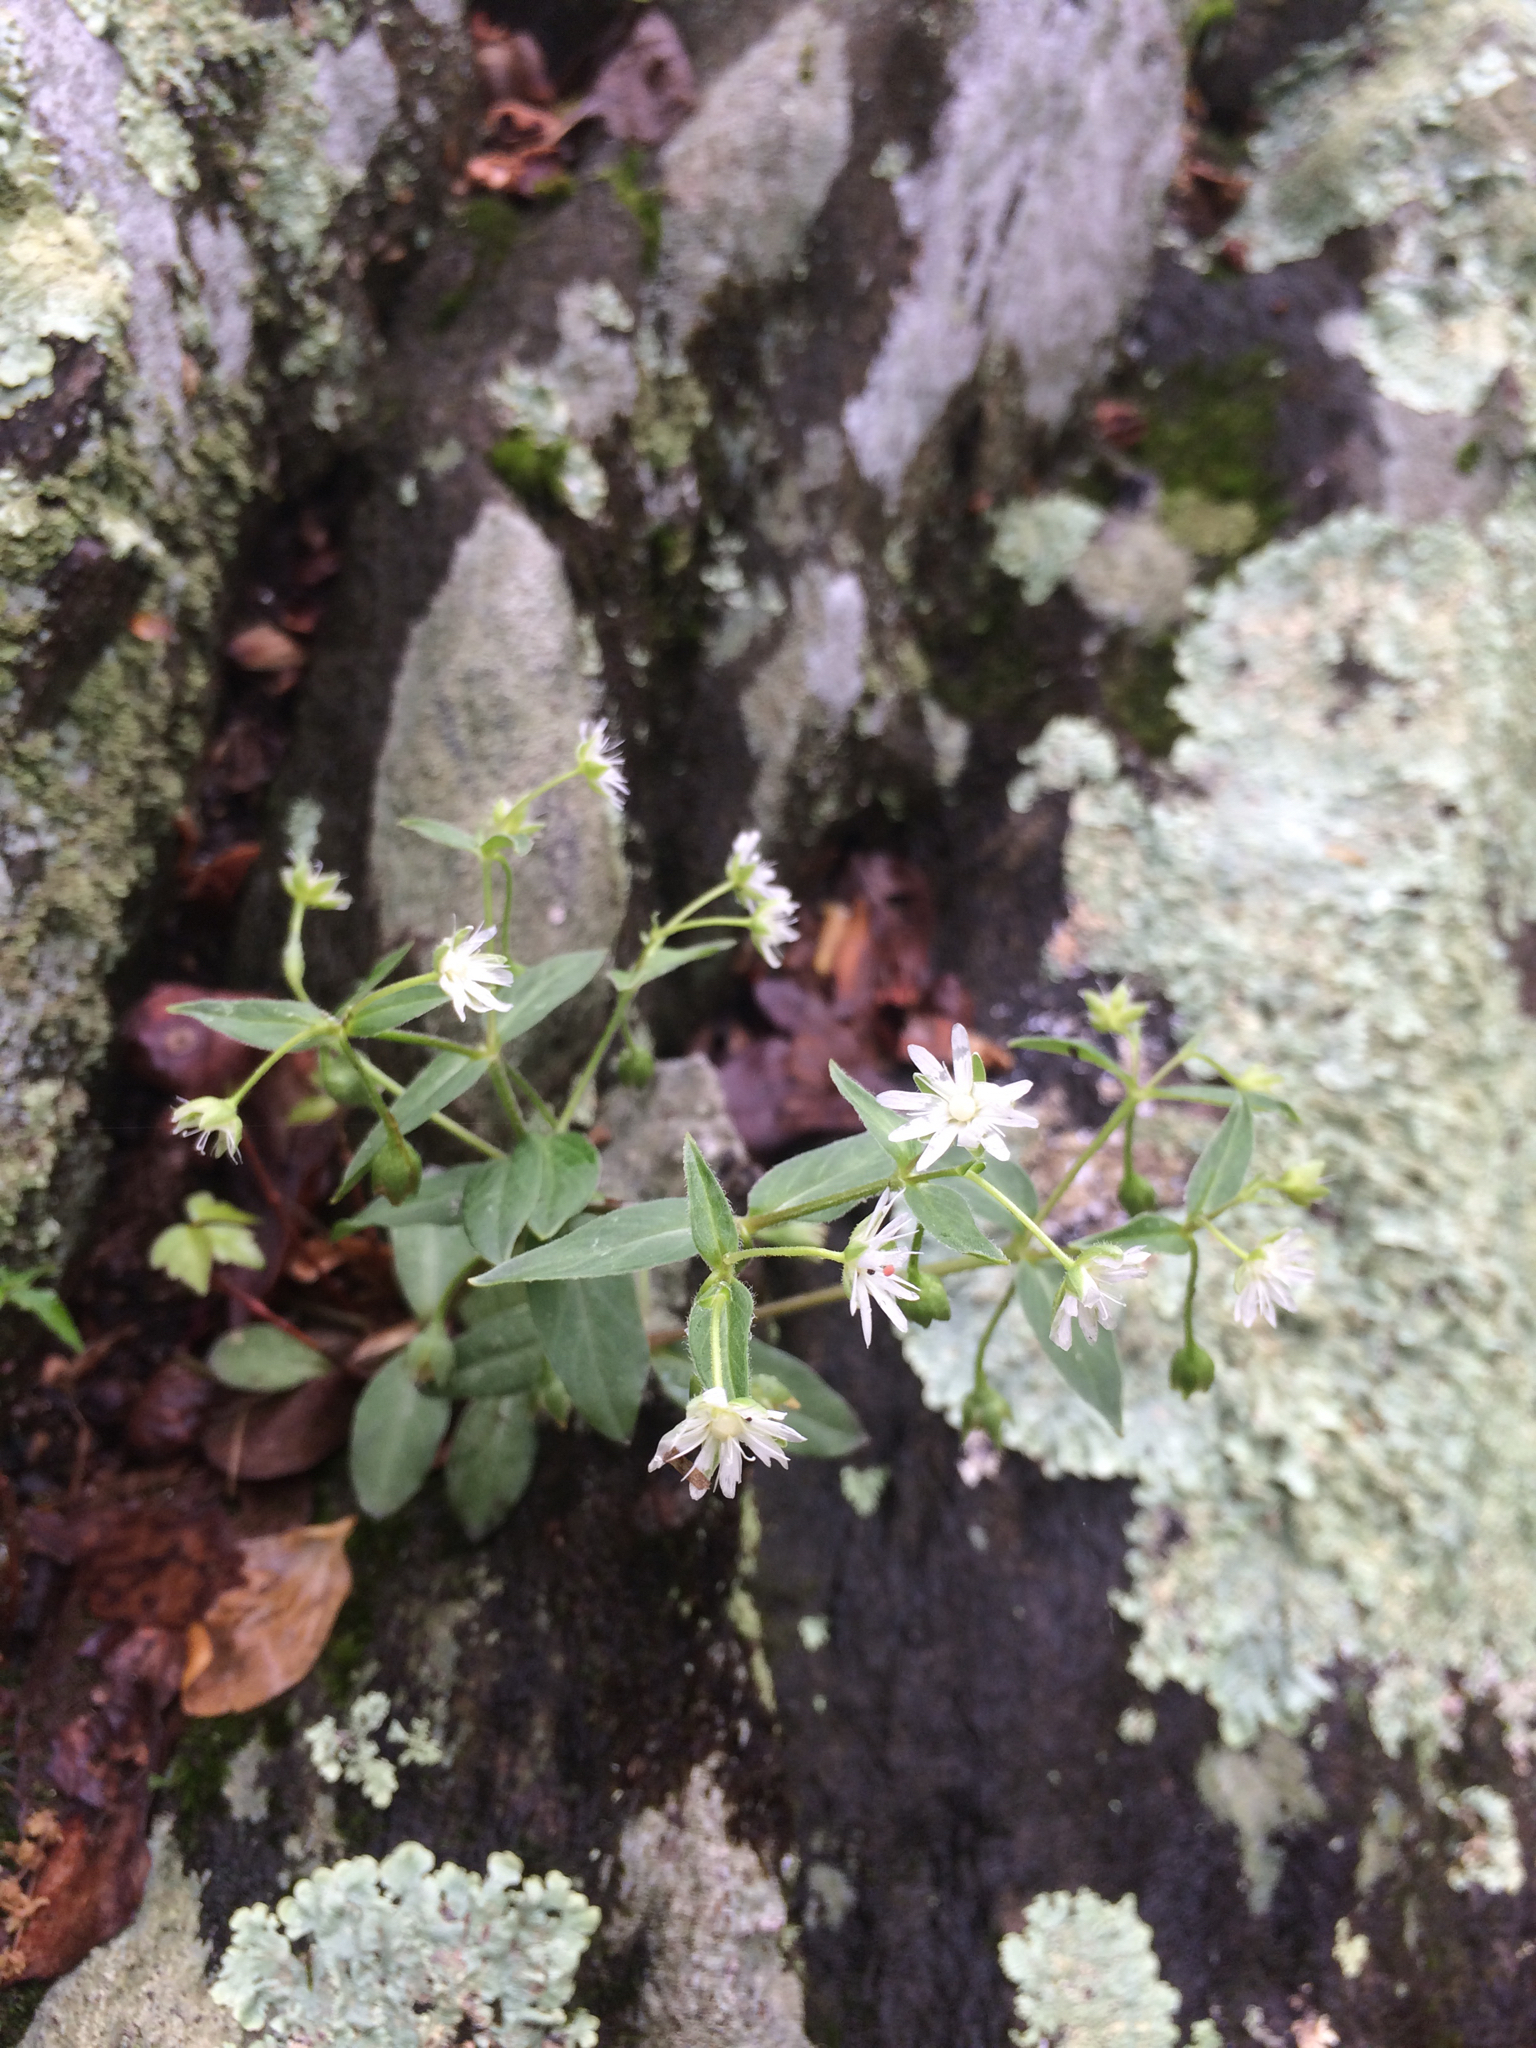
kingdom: Plantae
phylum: Tracheophyta
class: Magnoliopsida
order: Caryophyllales
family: Caryophyllaceae
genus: Stellaria
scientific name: Stellaria pubera
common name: Star chickweed
